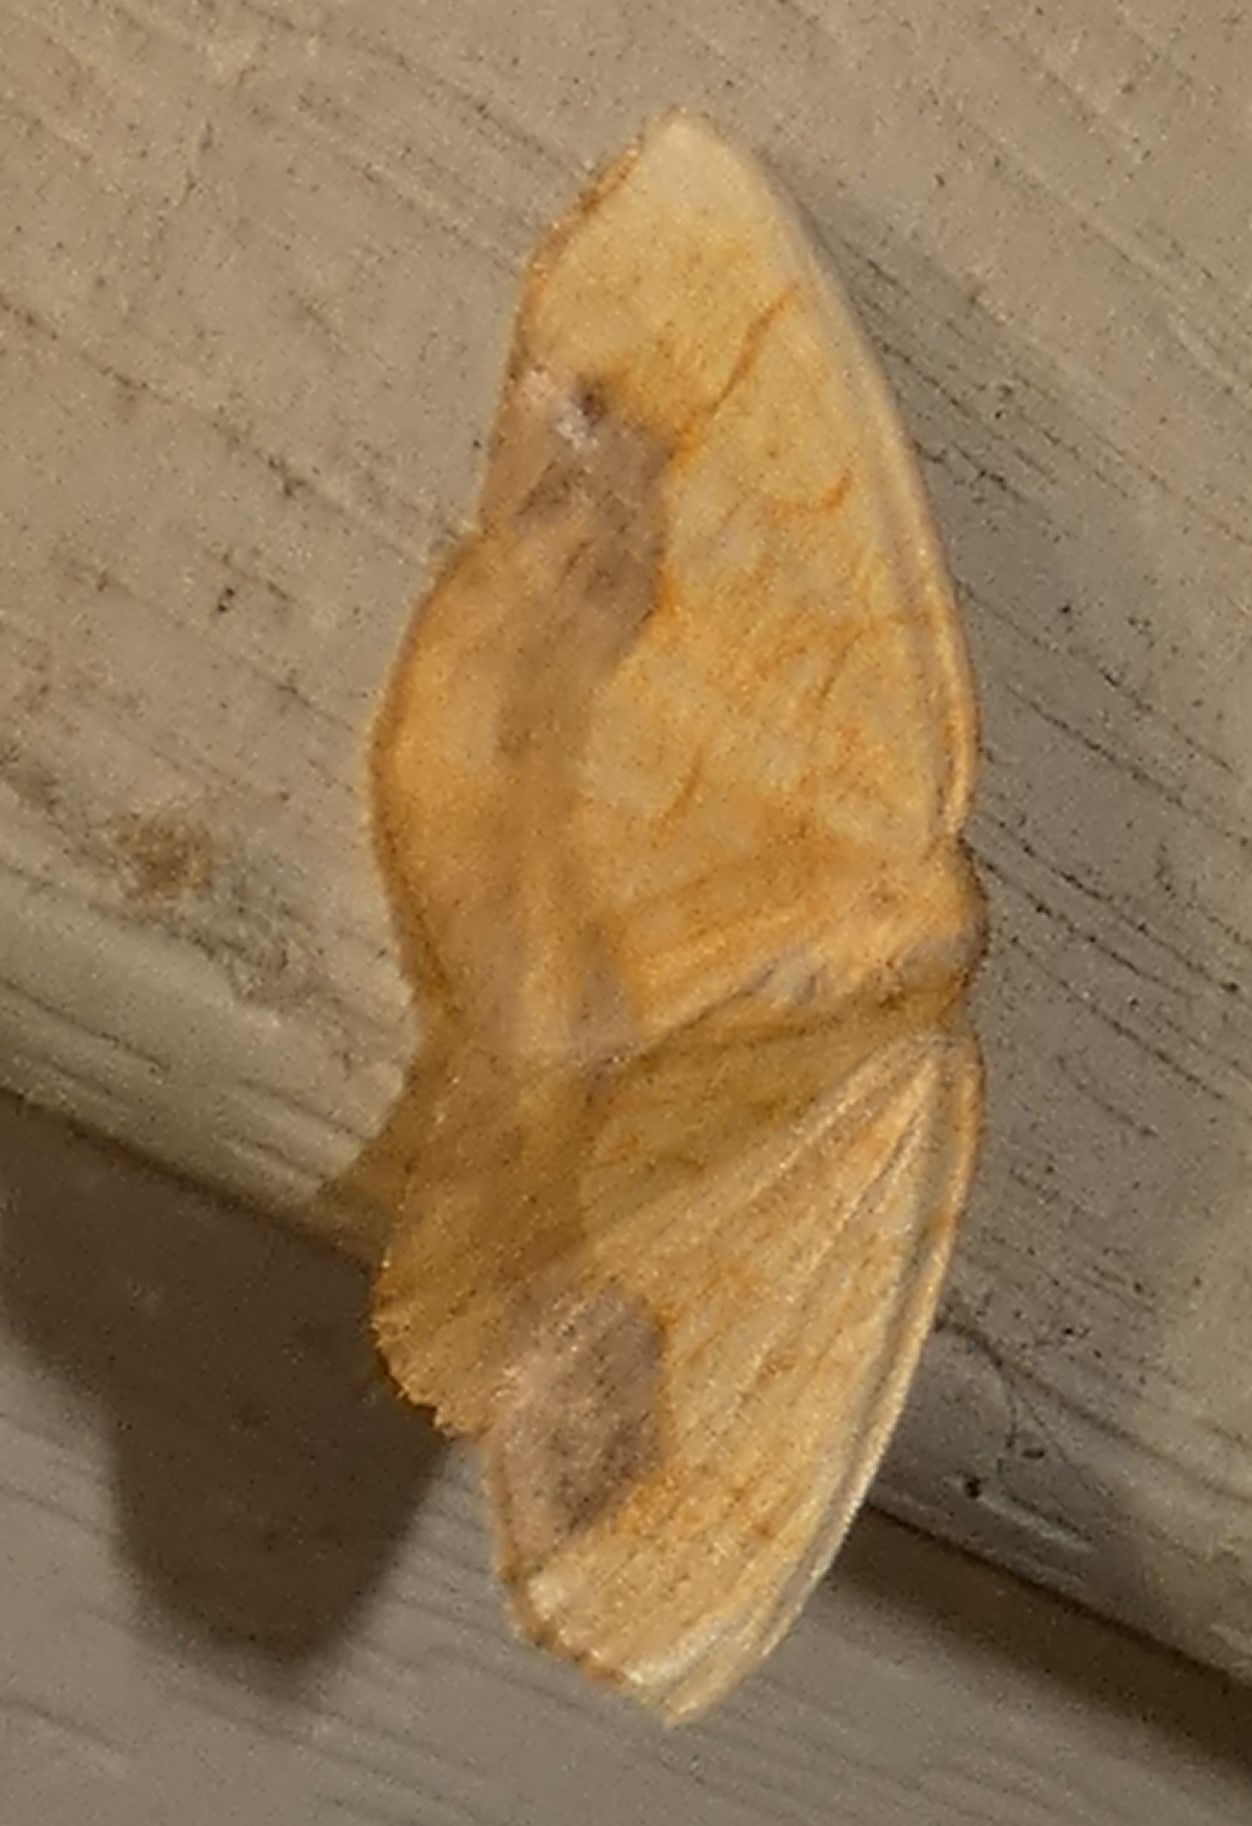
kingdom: Animalia
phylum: Arthropoda
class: Insecta
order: Lepidoptera
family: Geometridae
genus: Nematocampa
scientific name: Nematocampa resistaria
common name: Horned spanworm moth
